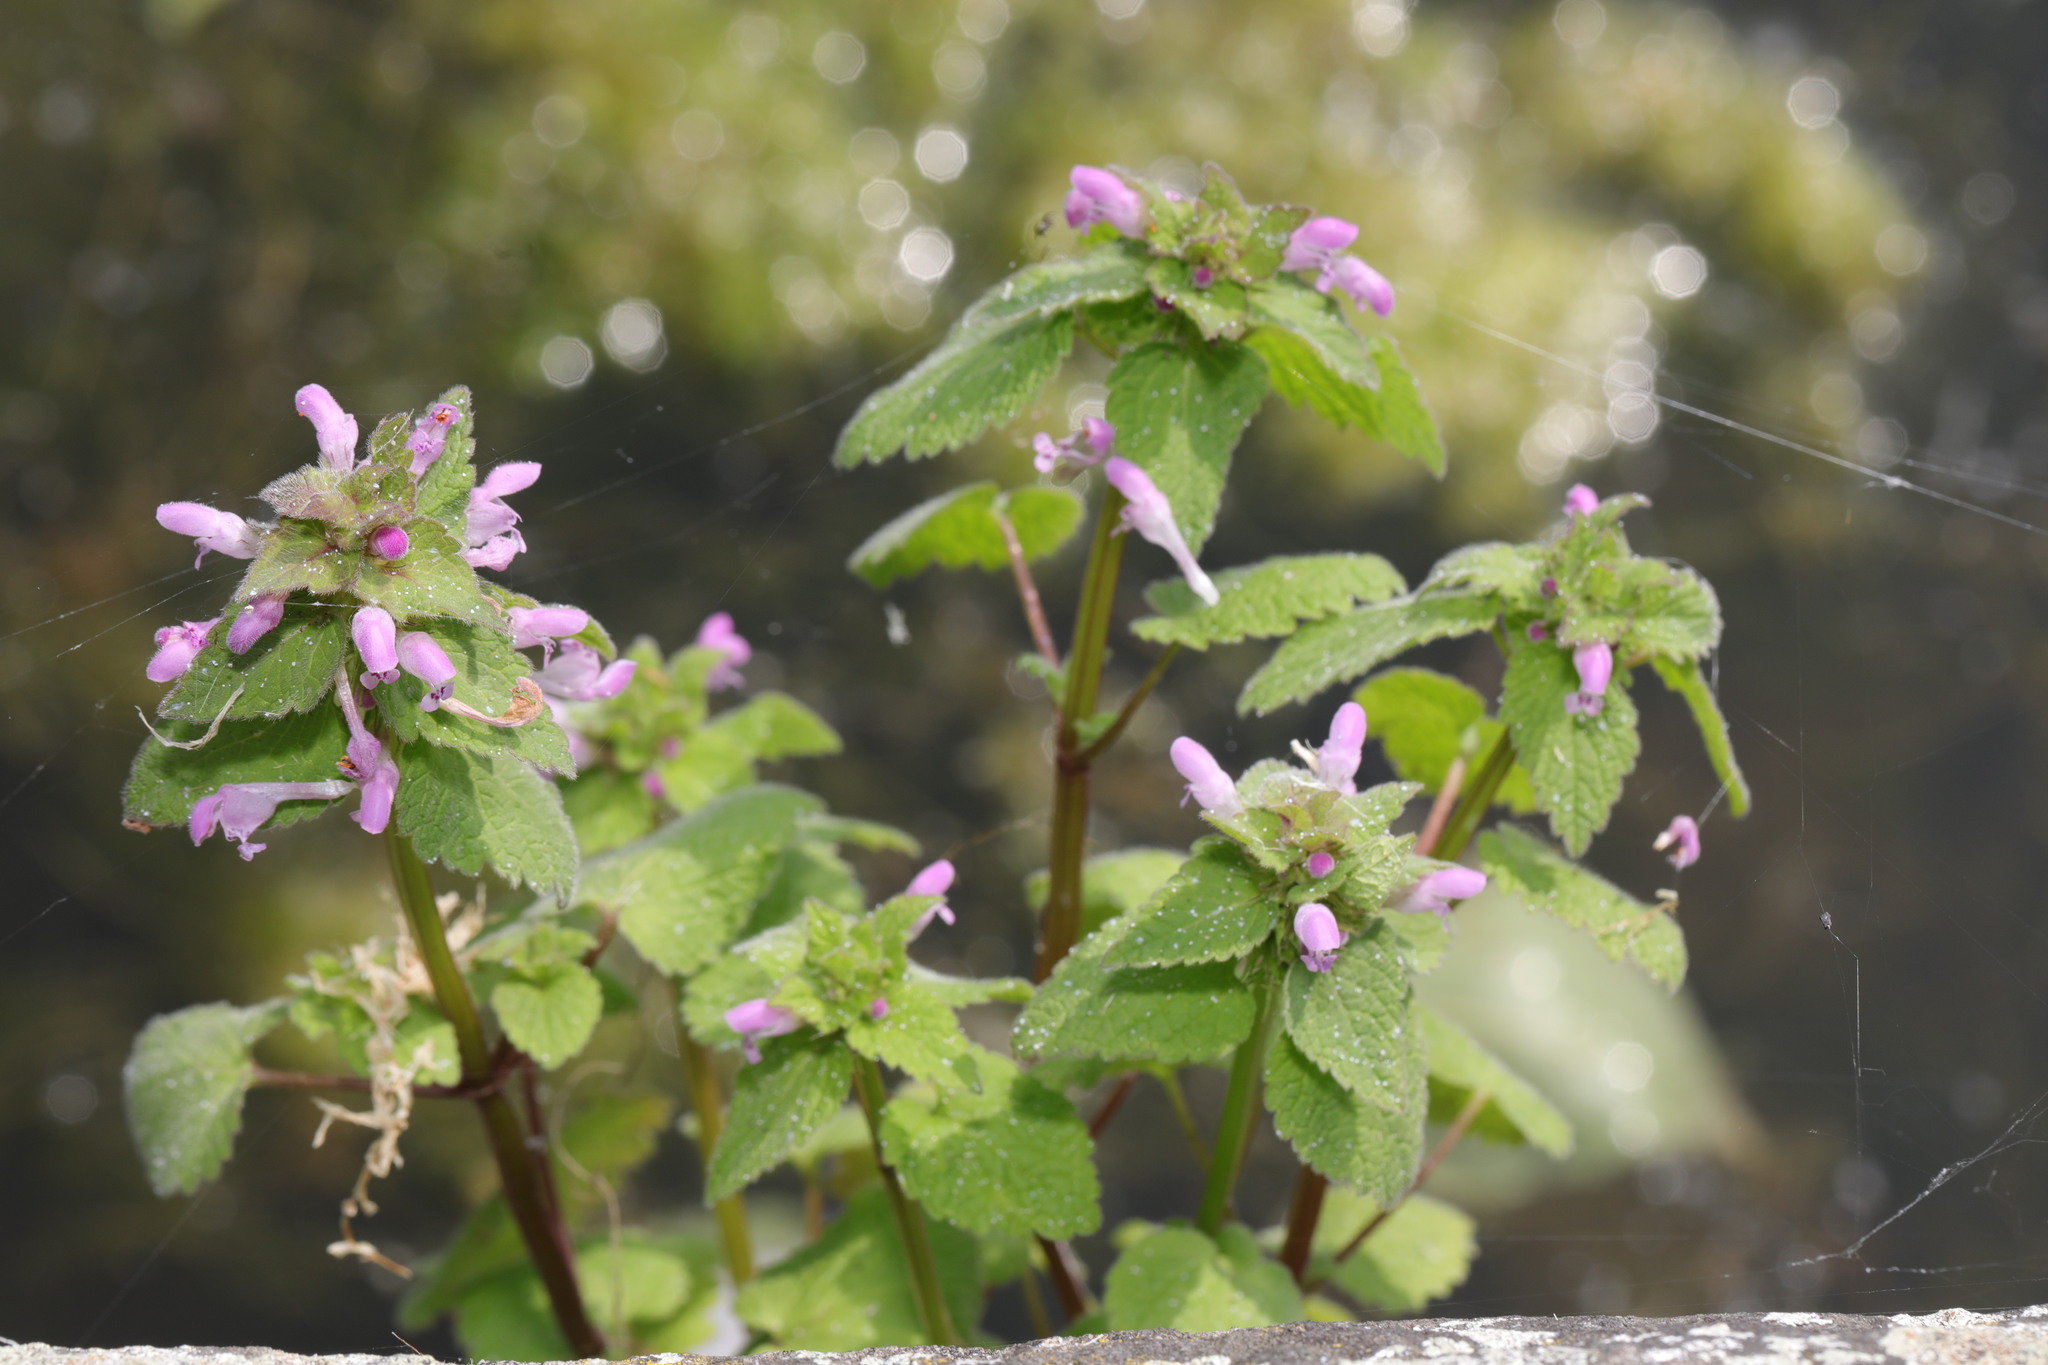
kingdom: Plantae
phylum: Tracheophyta
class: Magnoliopsida
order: Lamiales
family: Lamiaceae
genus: Lamium
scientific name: Lamium purpureum
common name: Red dead-nettle
